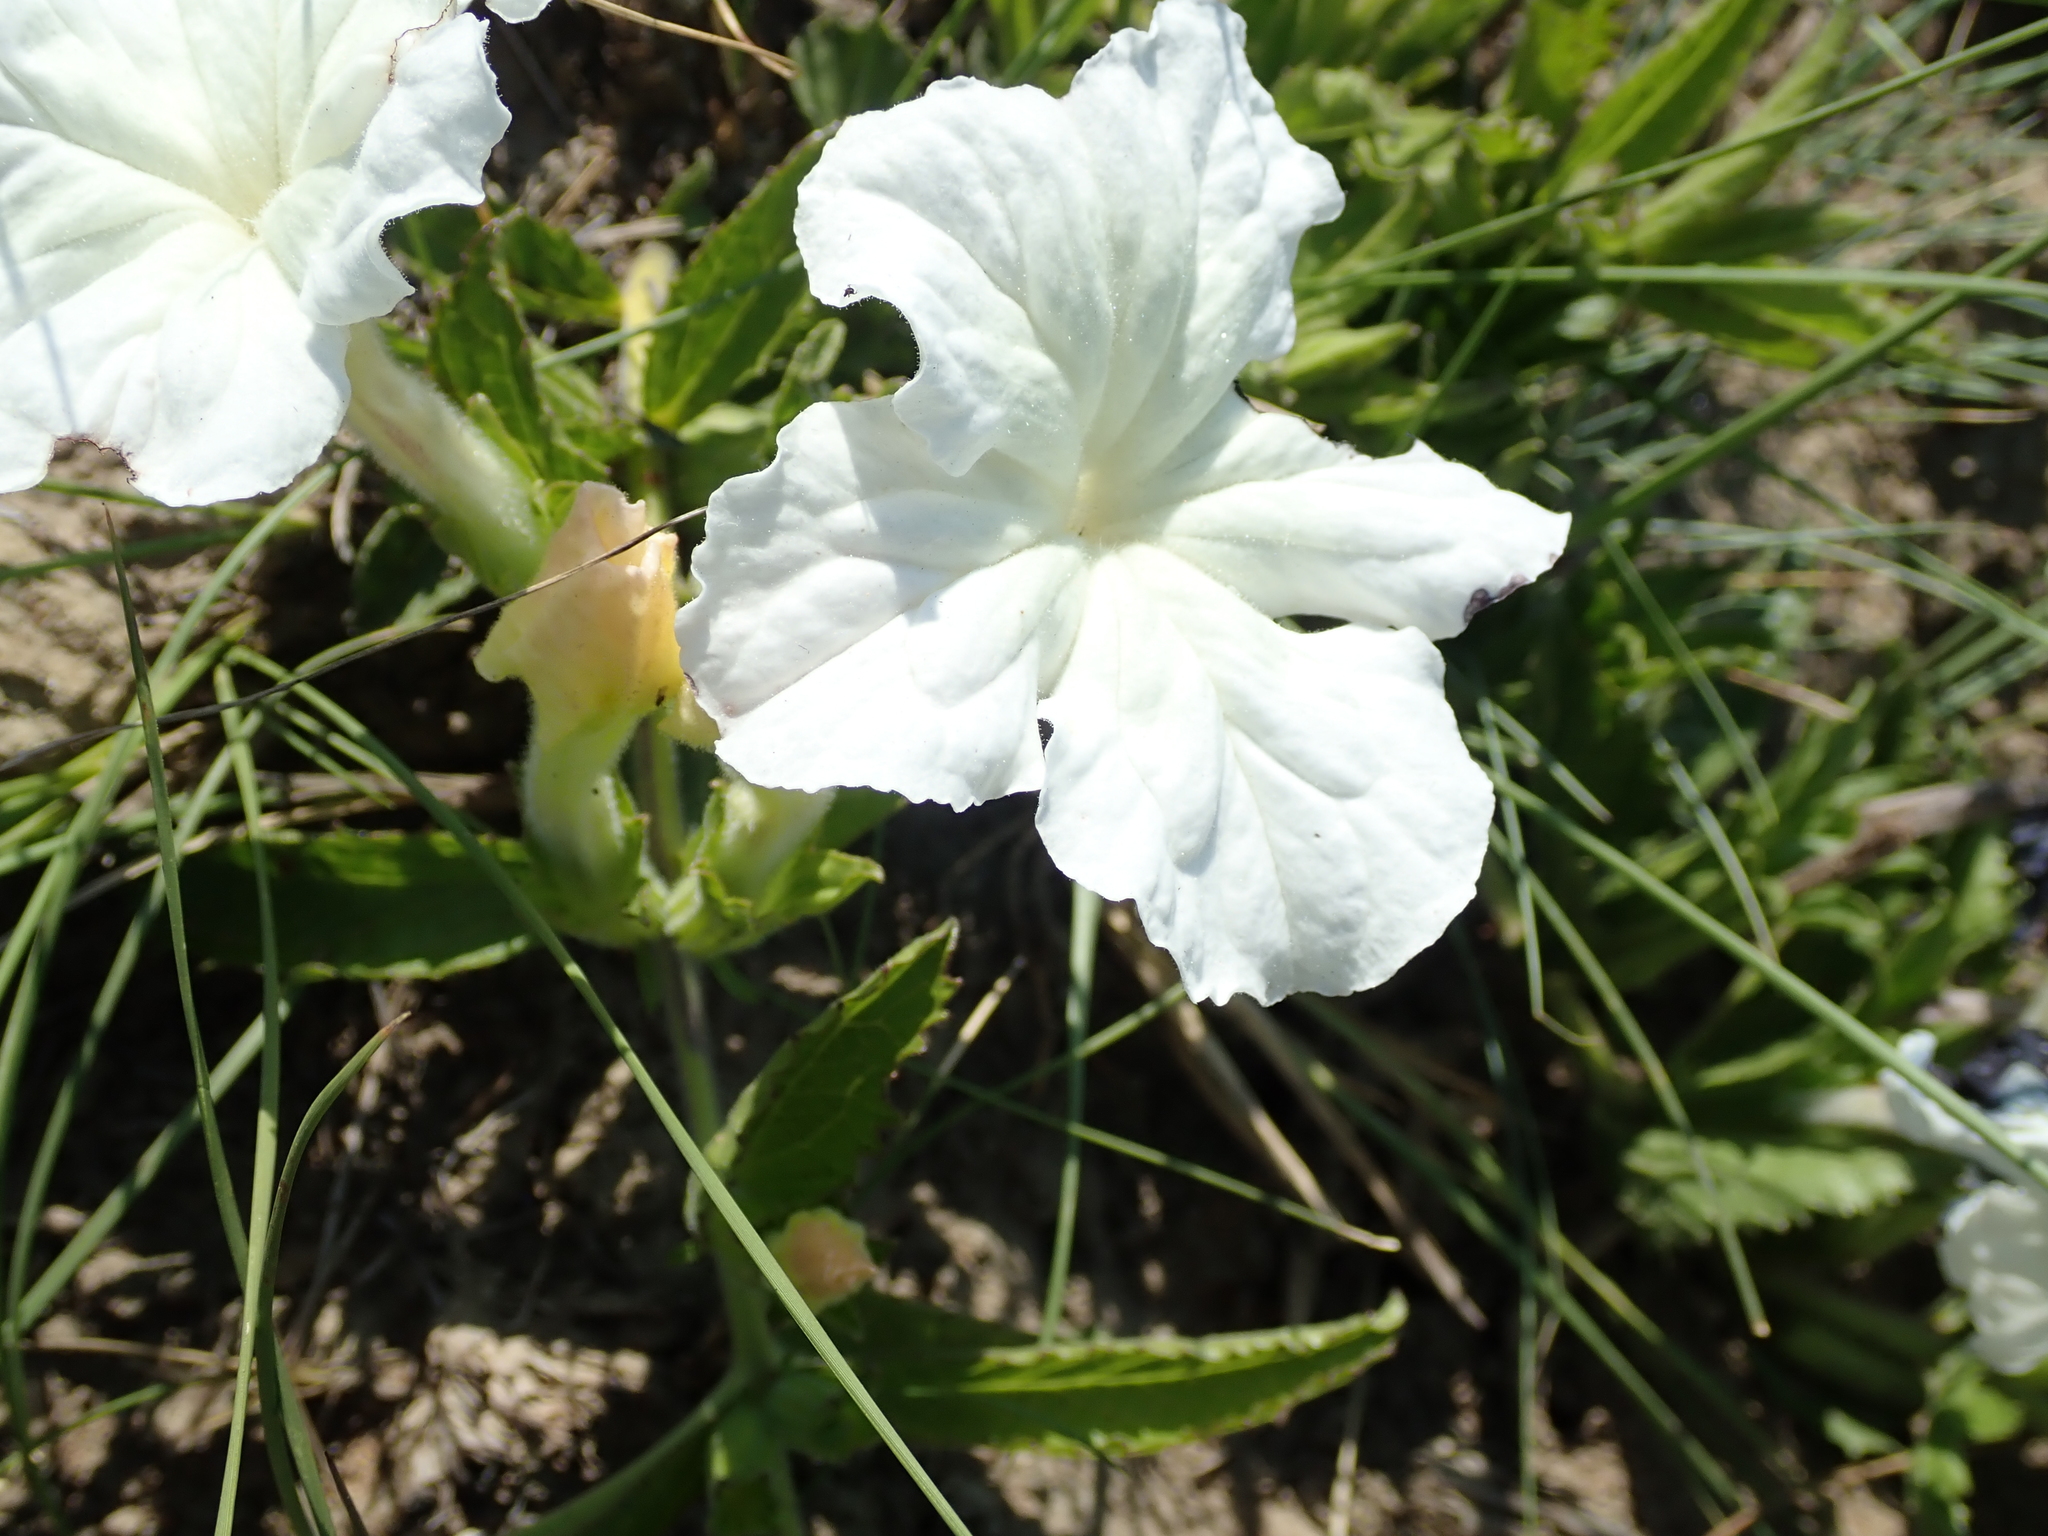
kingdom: Plantae
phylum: Tracheophyta
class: Magnoliopsida
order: Lamiales
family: Orobanchaceae
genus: Cycnium
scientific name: Cycnium adonense
